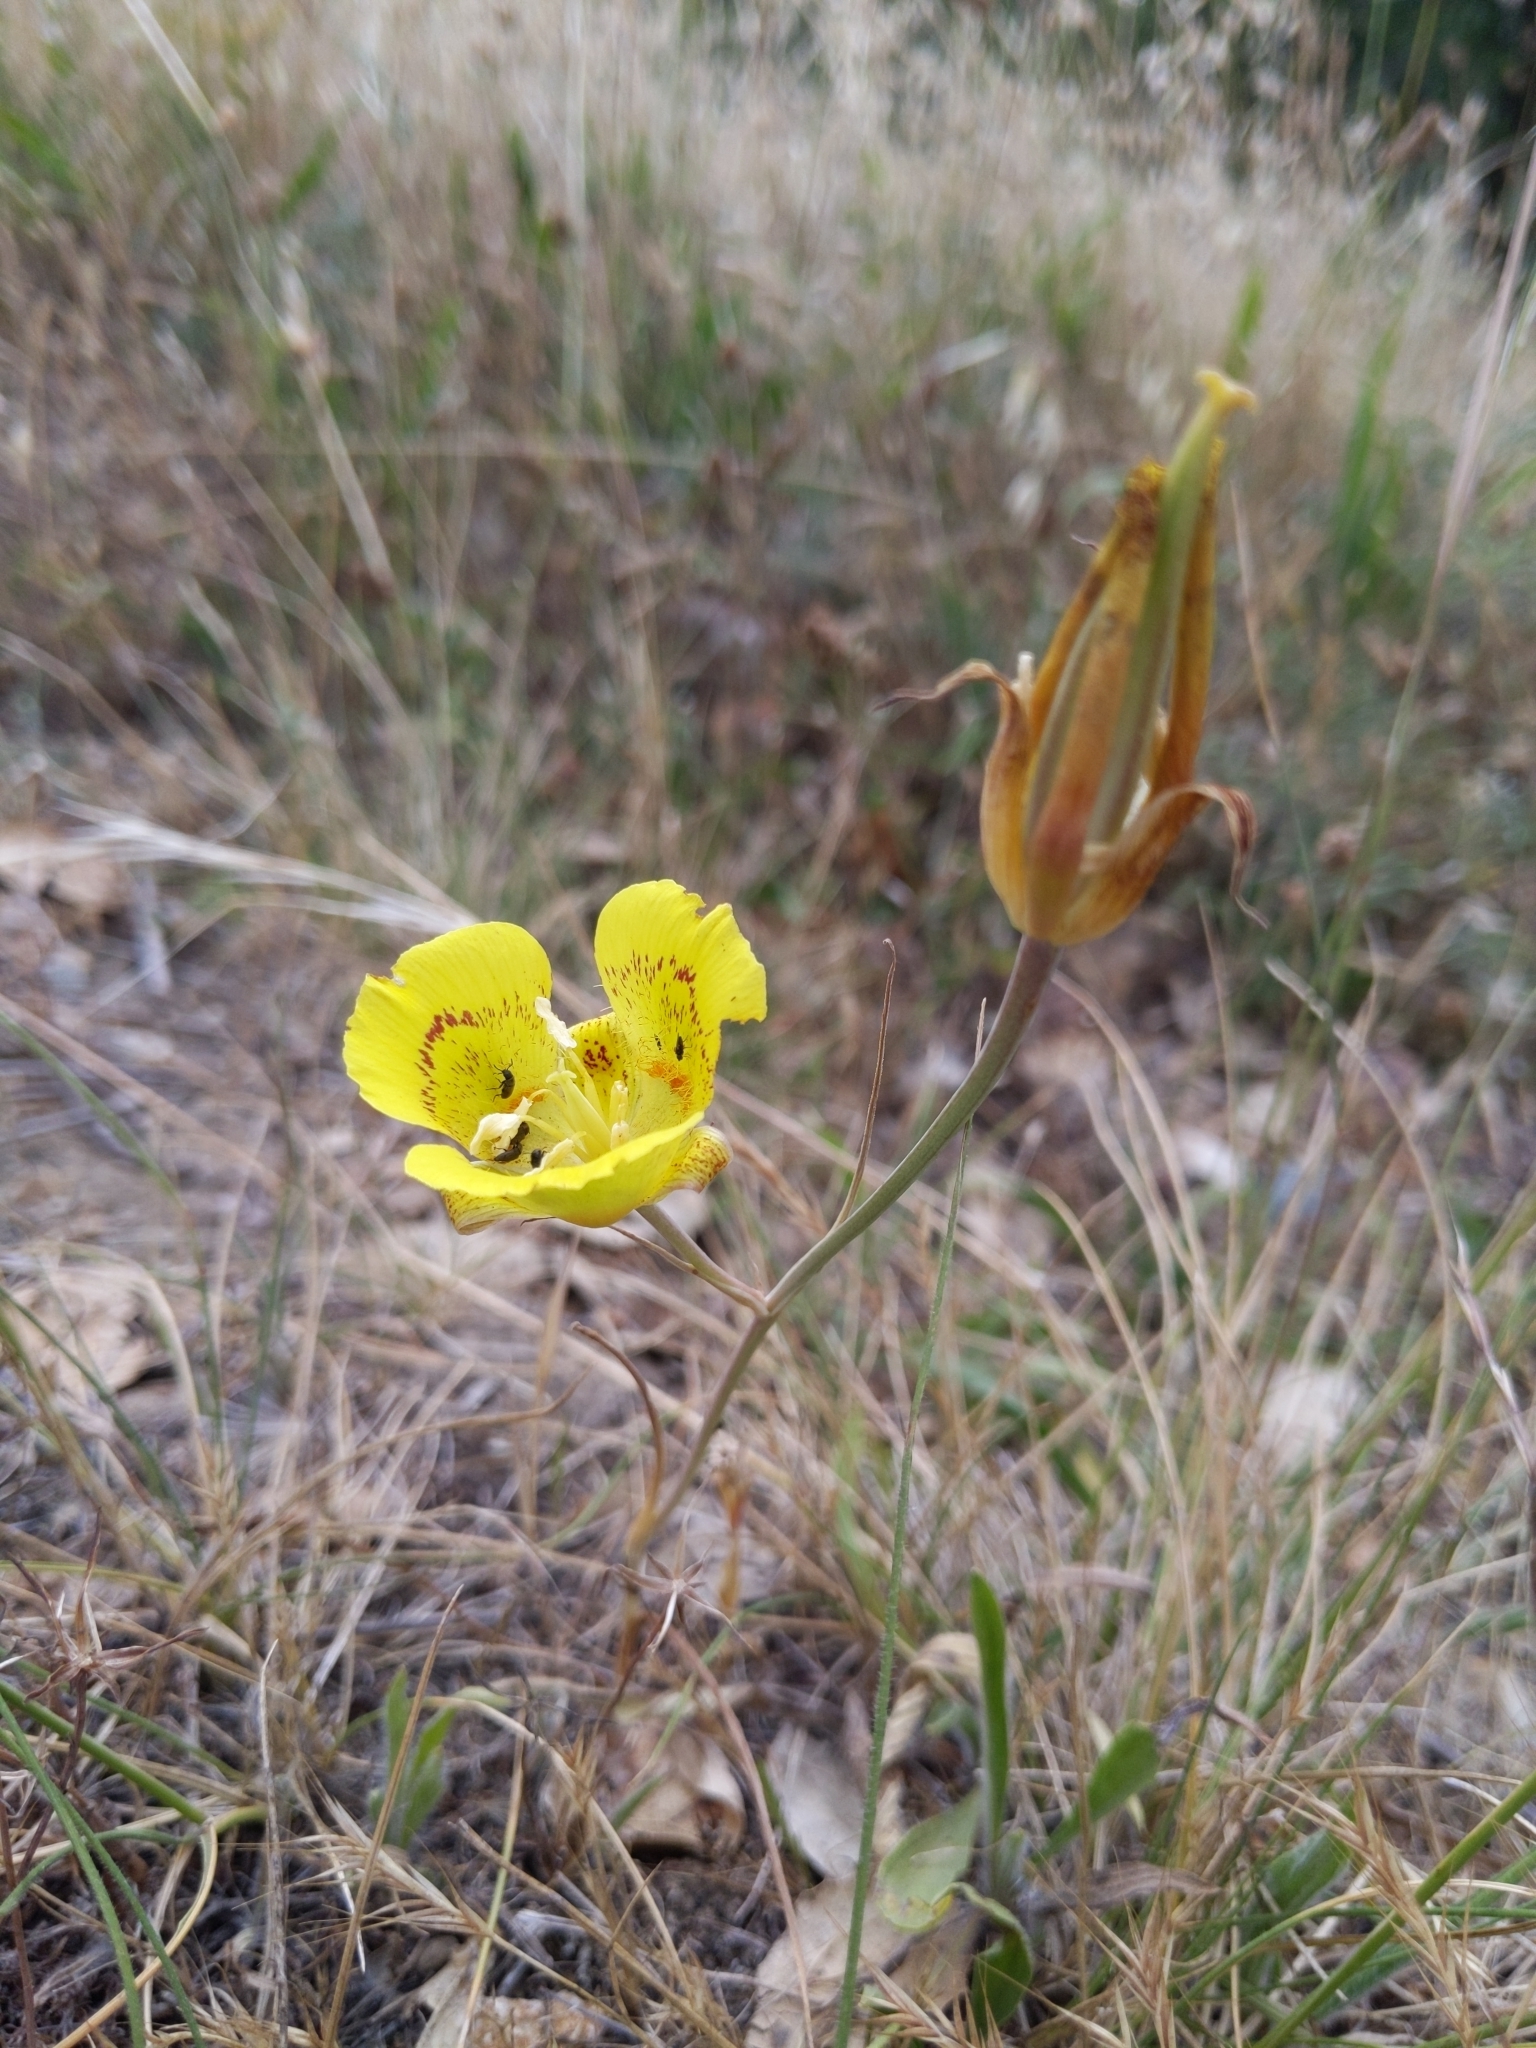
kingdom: Plantae
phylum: Tracheophyta
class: Liliopsida
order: Liliales
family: Liliaceae
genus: Calochortus
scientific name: Calochortus luteus
